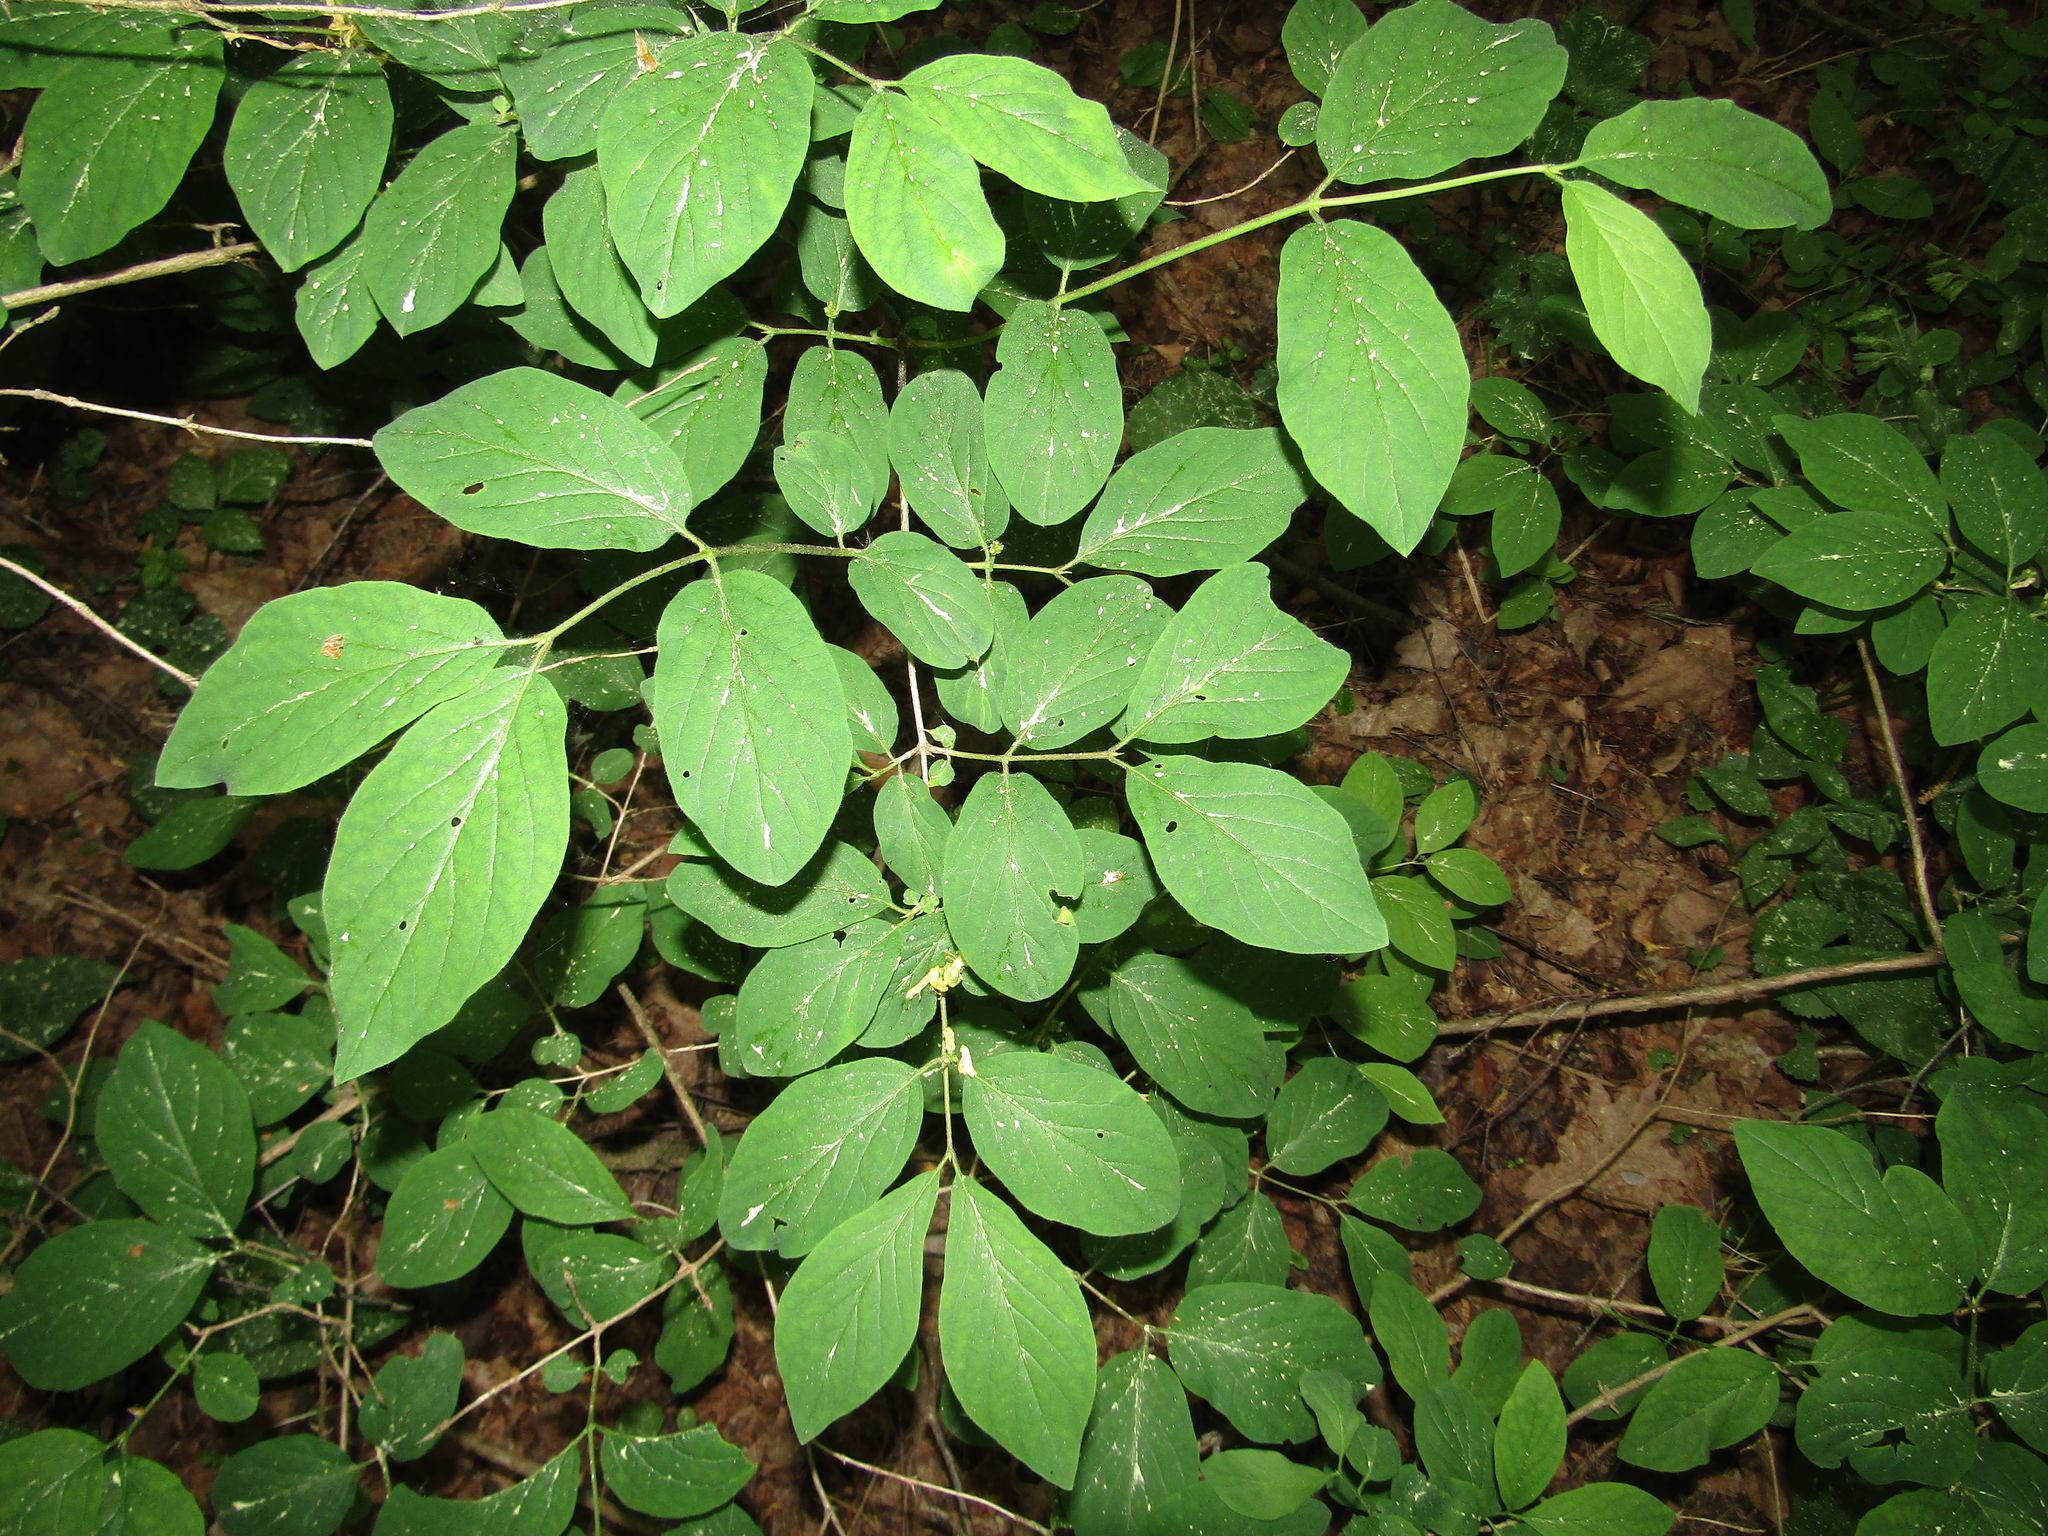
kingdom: Plantae
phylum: Tracheophyta
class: Magnoliopsida
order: Dipsacales
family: Caprifoliaceae
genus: Lonicera
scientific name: Lonicera xylosteum
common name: Fly honeysuckle
